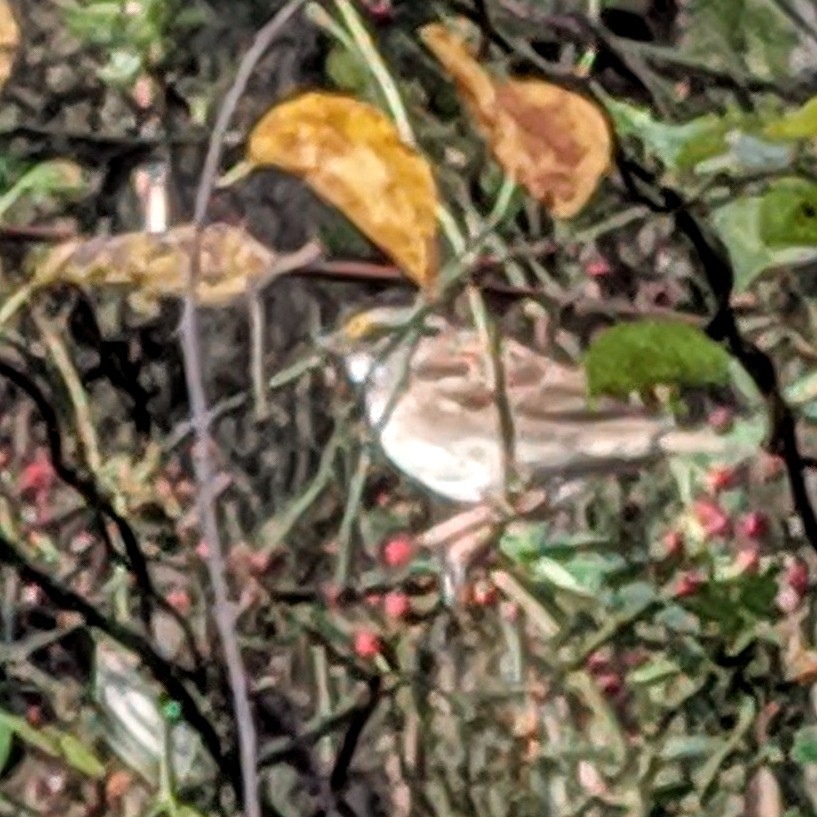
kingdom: Animalia
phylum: Chordata
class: Aves
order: Passeriformes
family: Passerellidae
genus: Zonotrichia
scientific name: Zonotrichia albicollis
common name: White-throated sparrow
